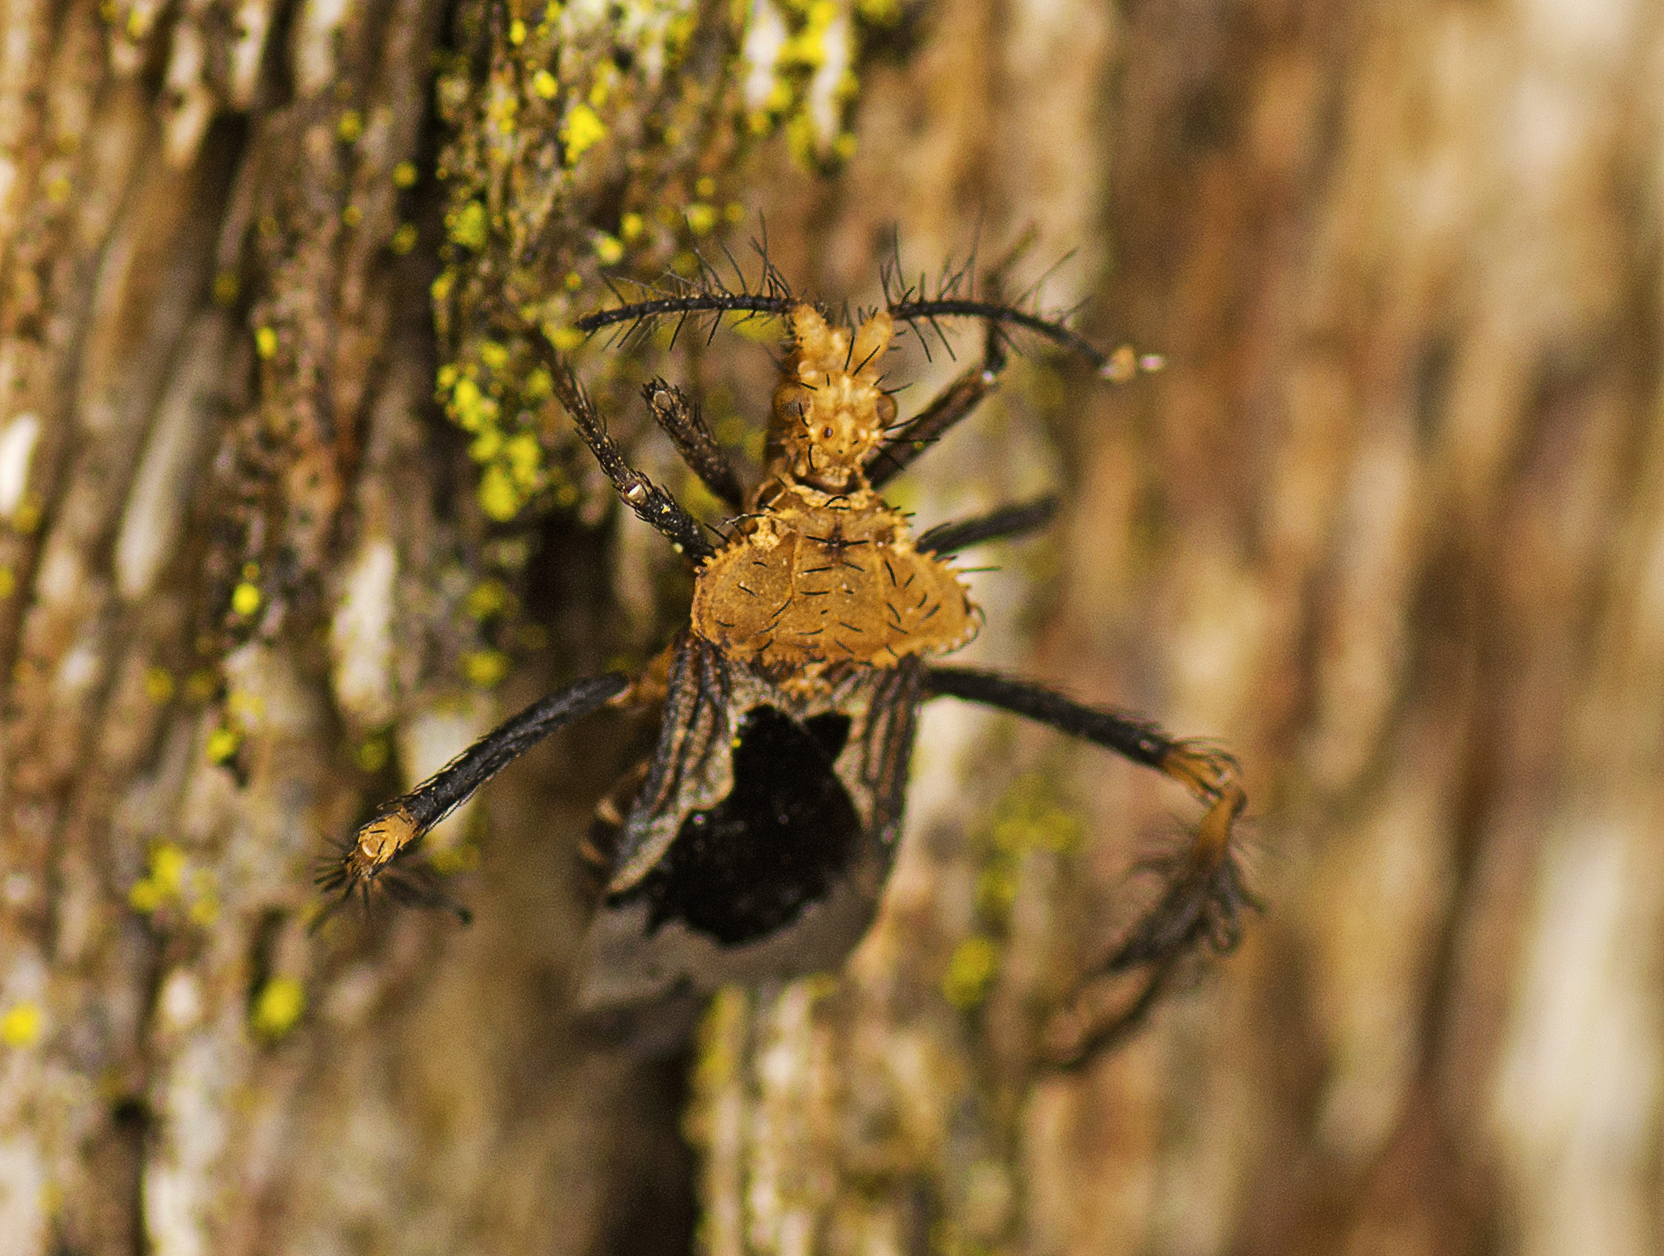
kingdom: Animalia
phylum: Arthropoda
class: Insecta
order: Hemiptera
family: Reduviidae
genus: Ptilocnemus
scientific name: Ptilocnemus lemur
